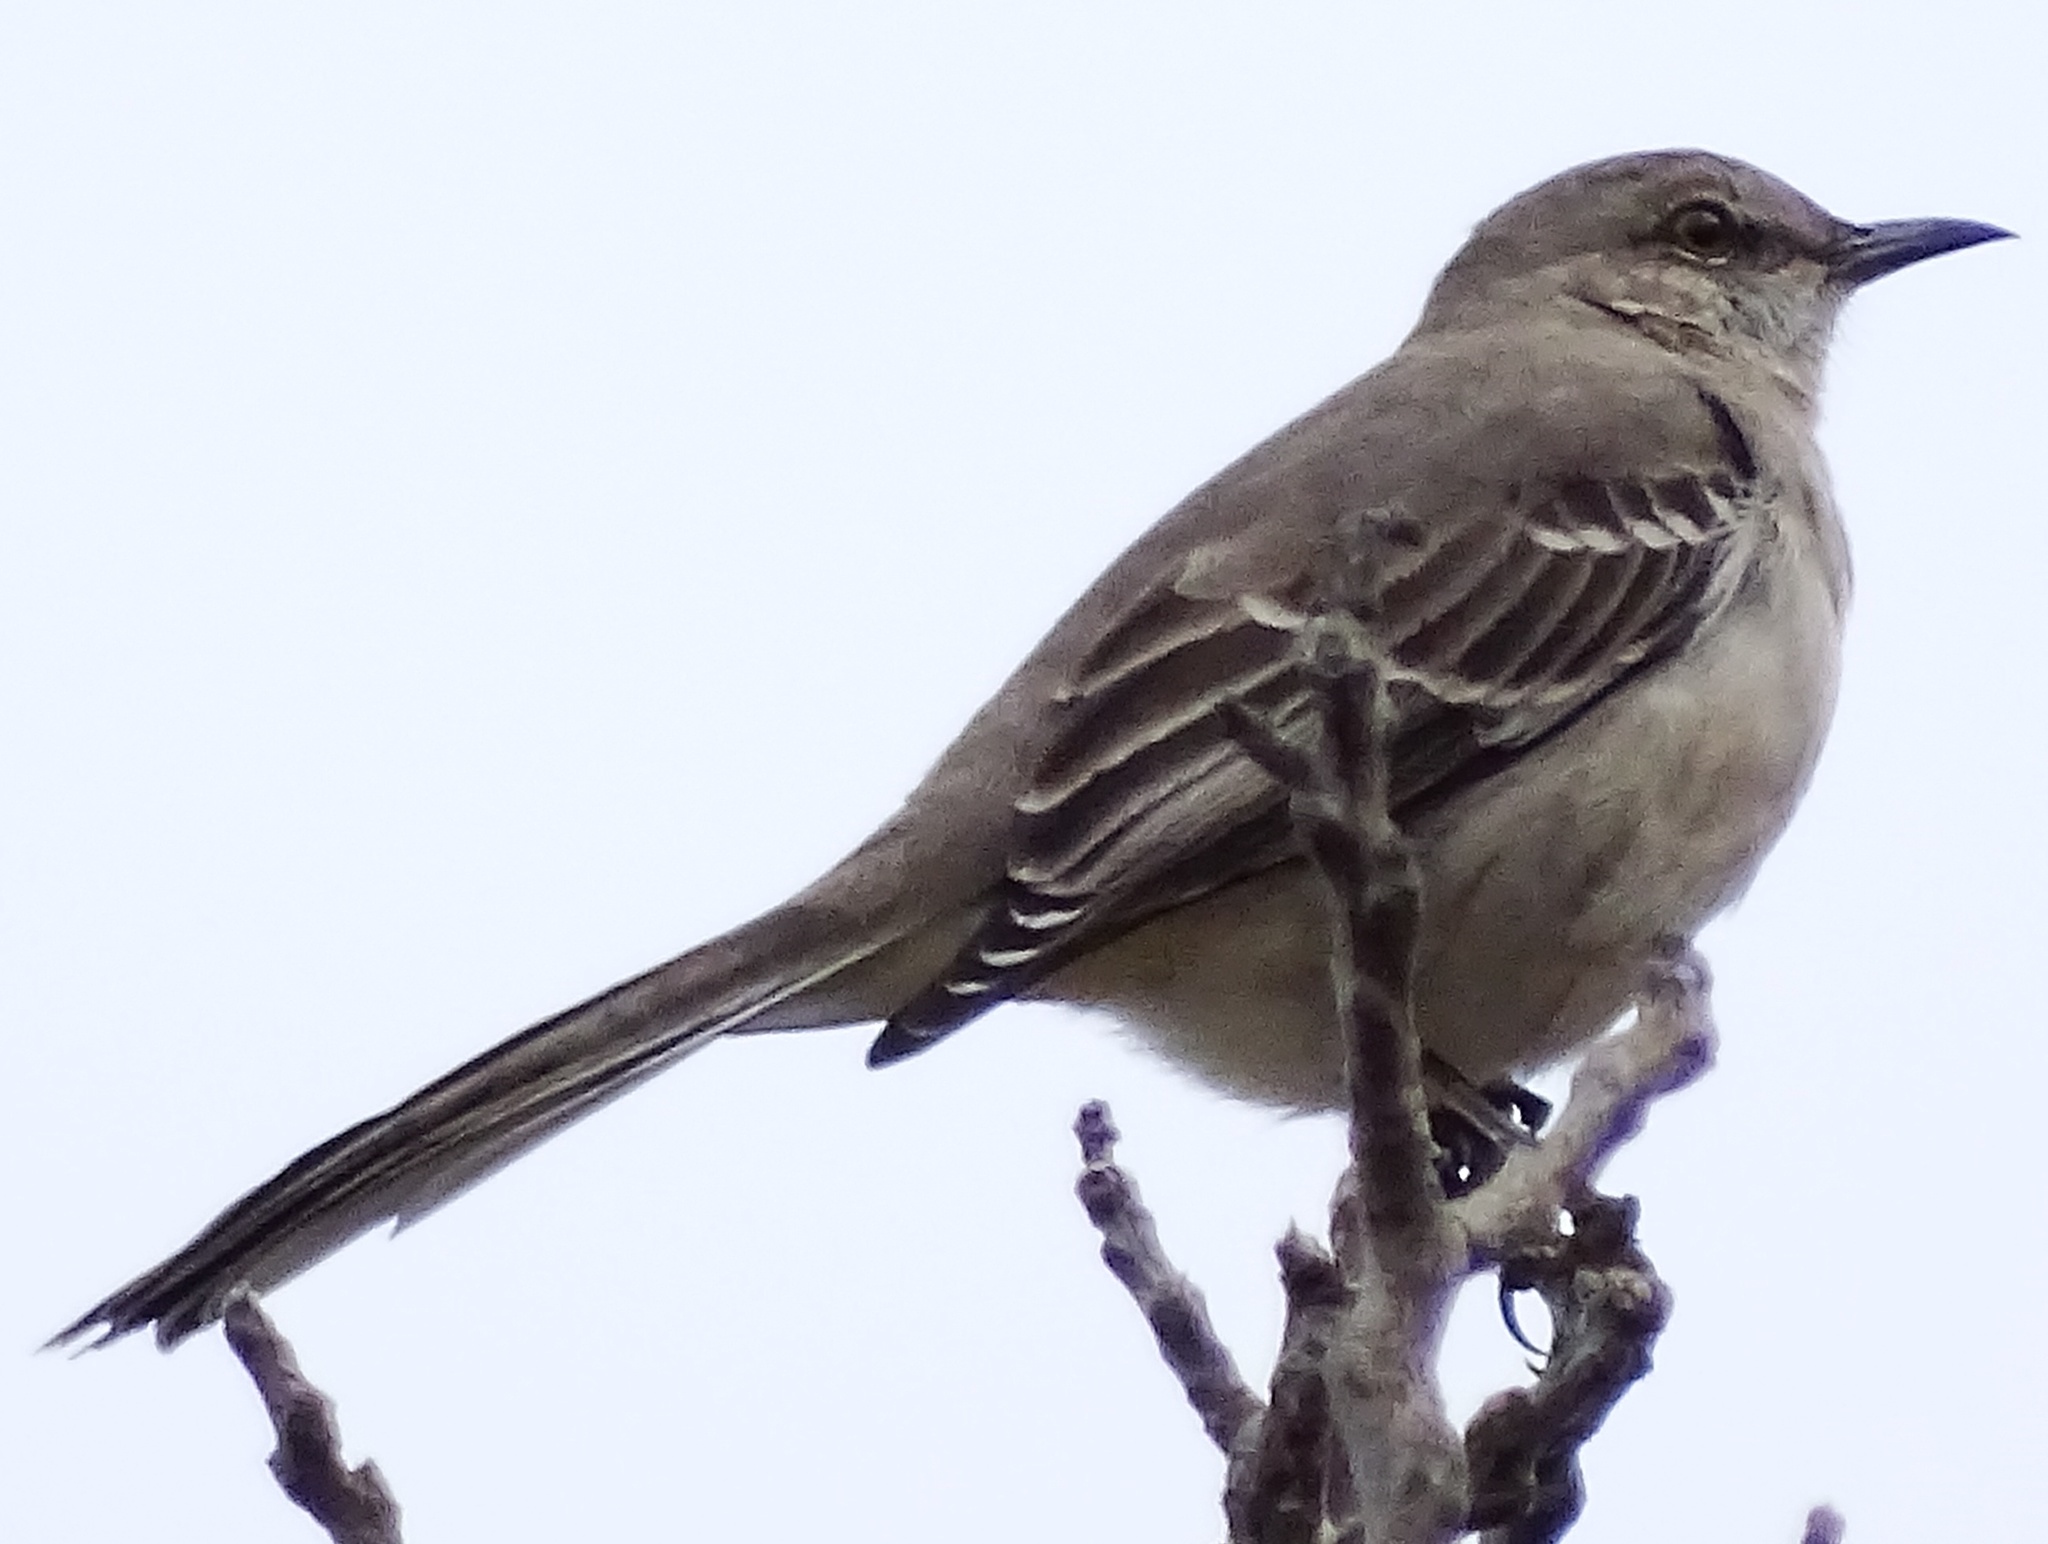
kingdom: Animalia
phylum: Chordata
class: Aves
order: Passeriformes
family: Mimidae
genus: Mimus
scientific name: Mimus polyglottos
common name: Northern mockingbird
